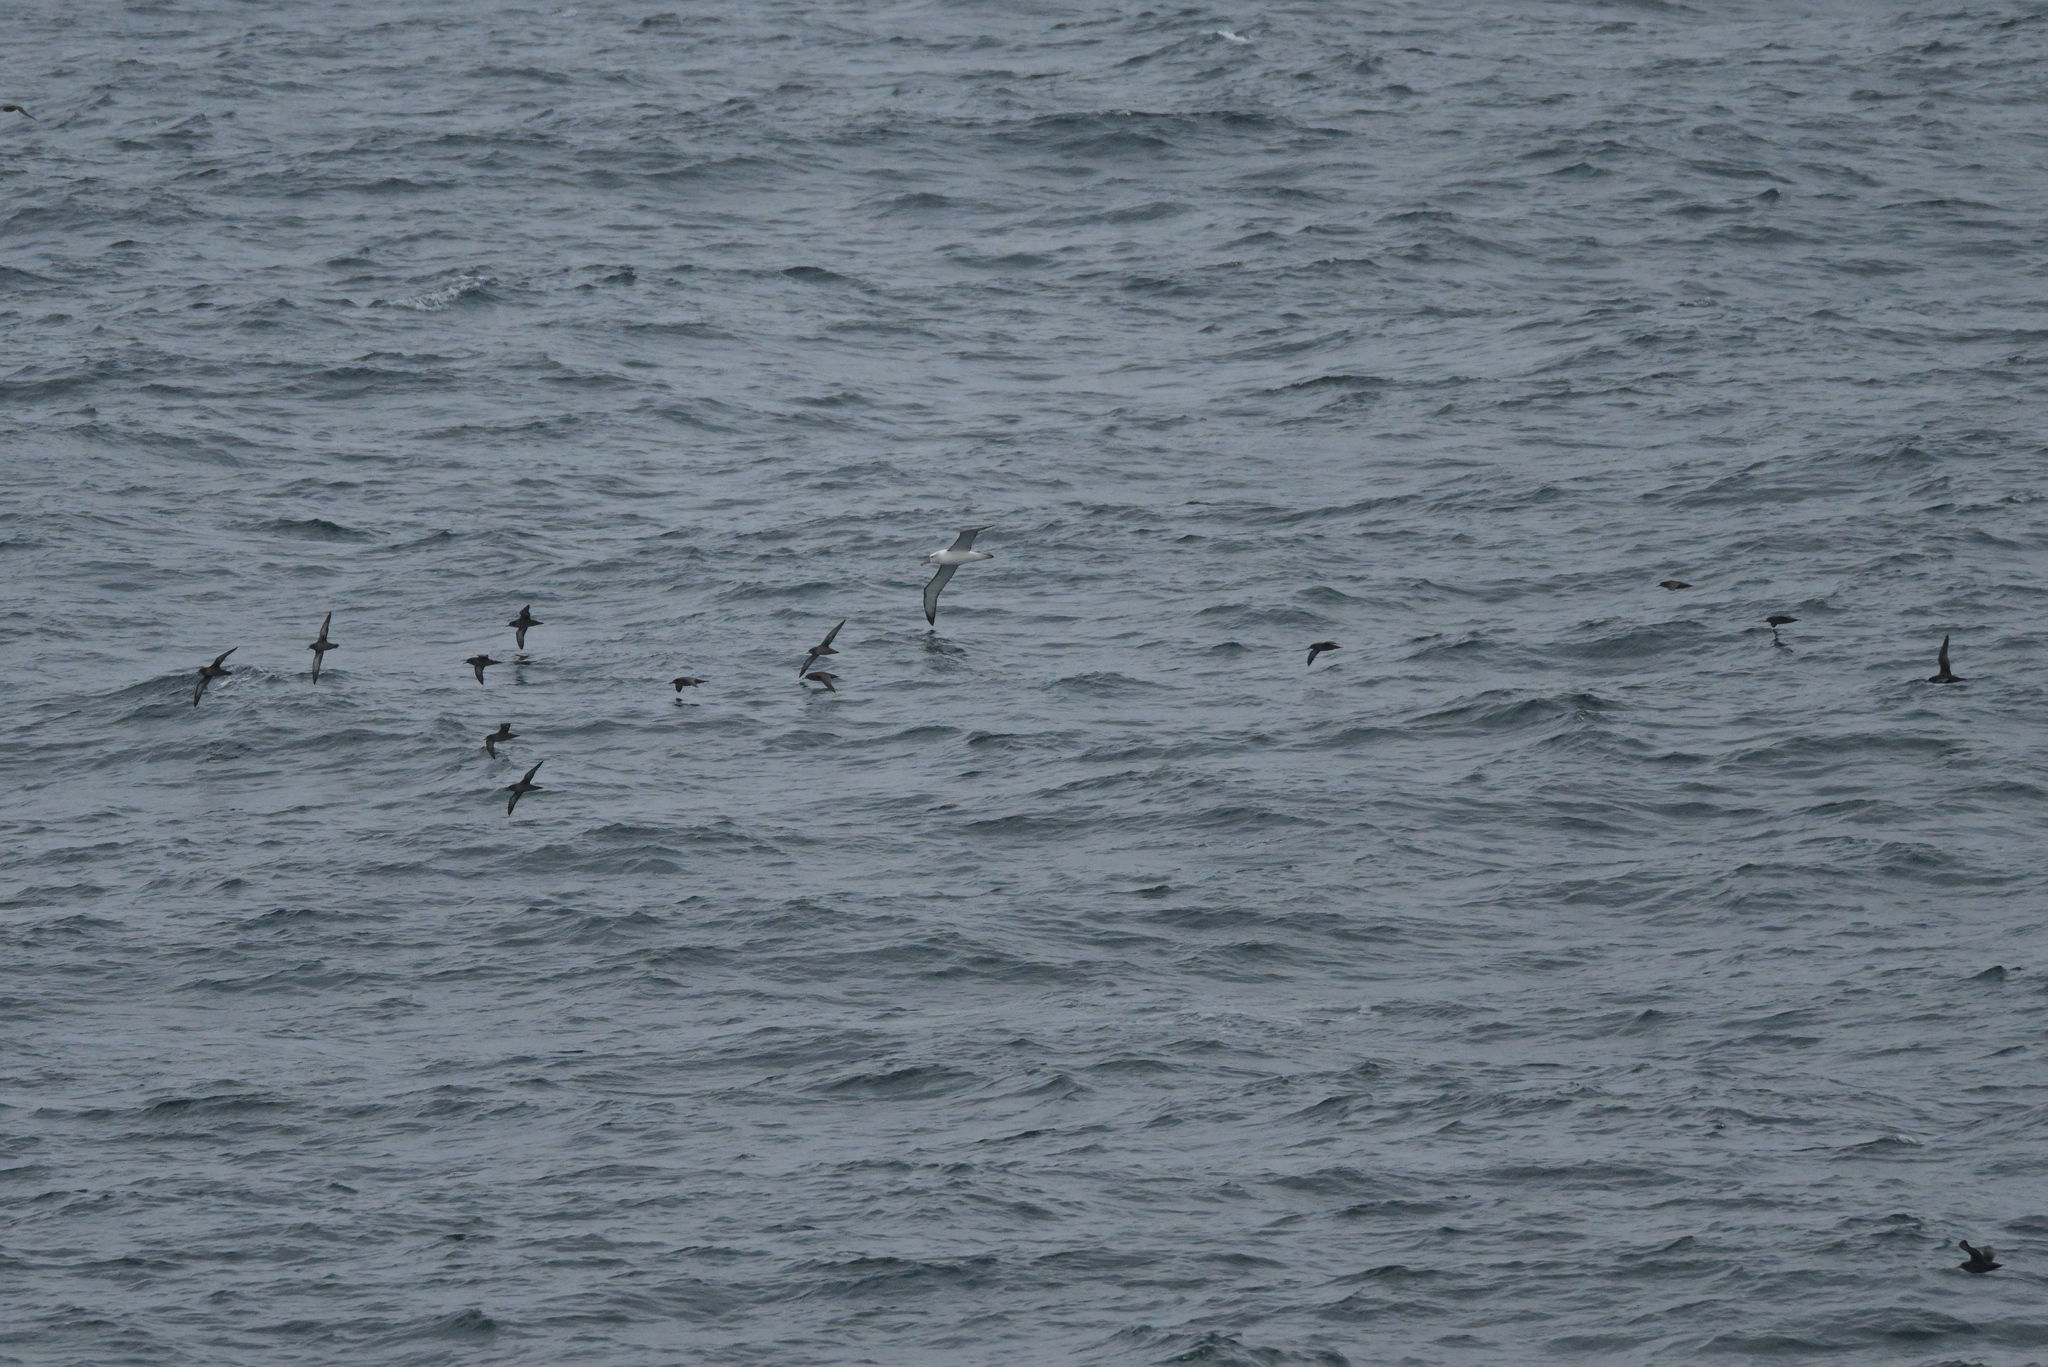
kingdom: Animalia
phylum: Chordata
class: Aves
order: Procellariiformes
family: Diomedeidae
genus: Thalassarche
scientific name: Thalassarche cauta
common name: Shy albatross
